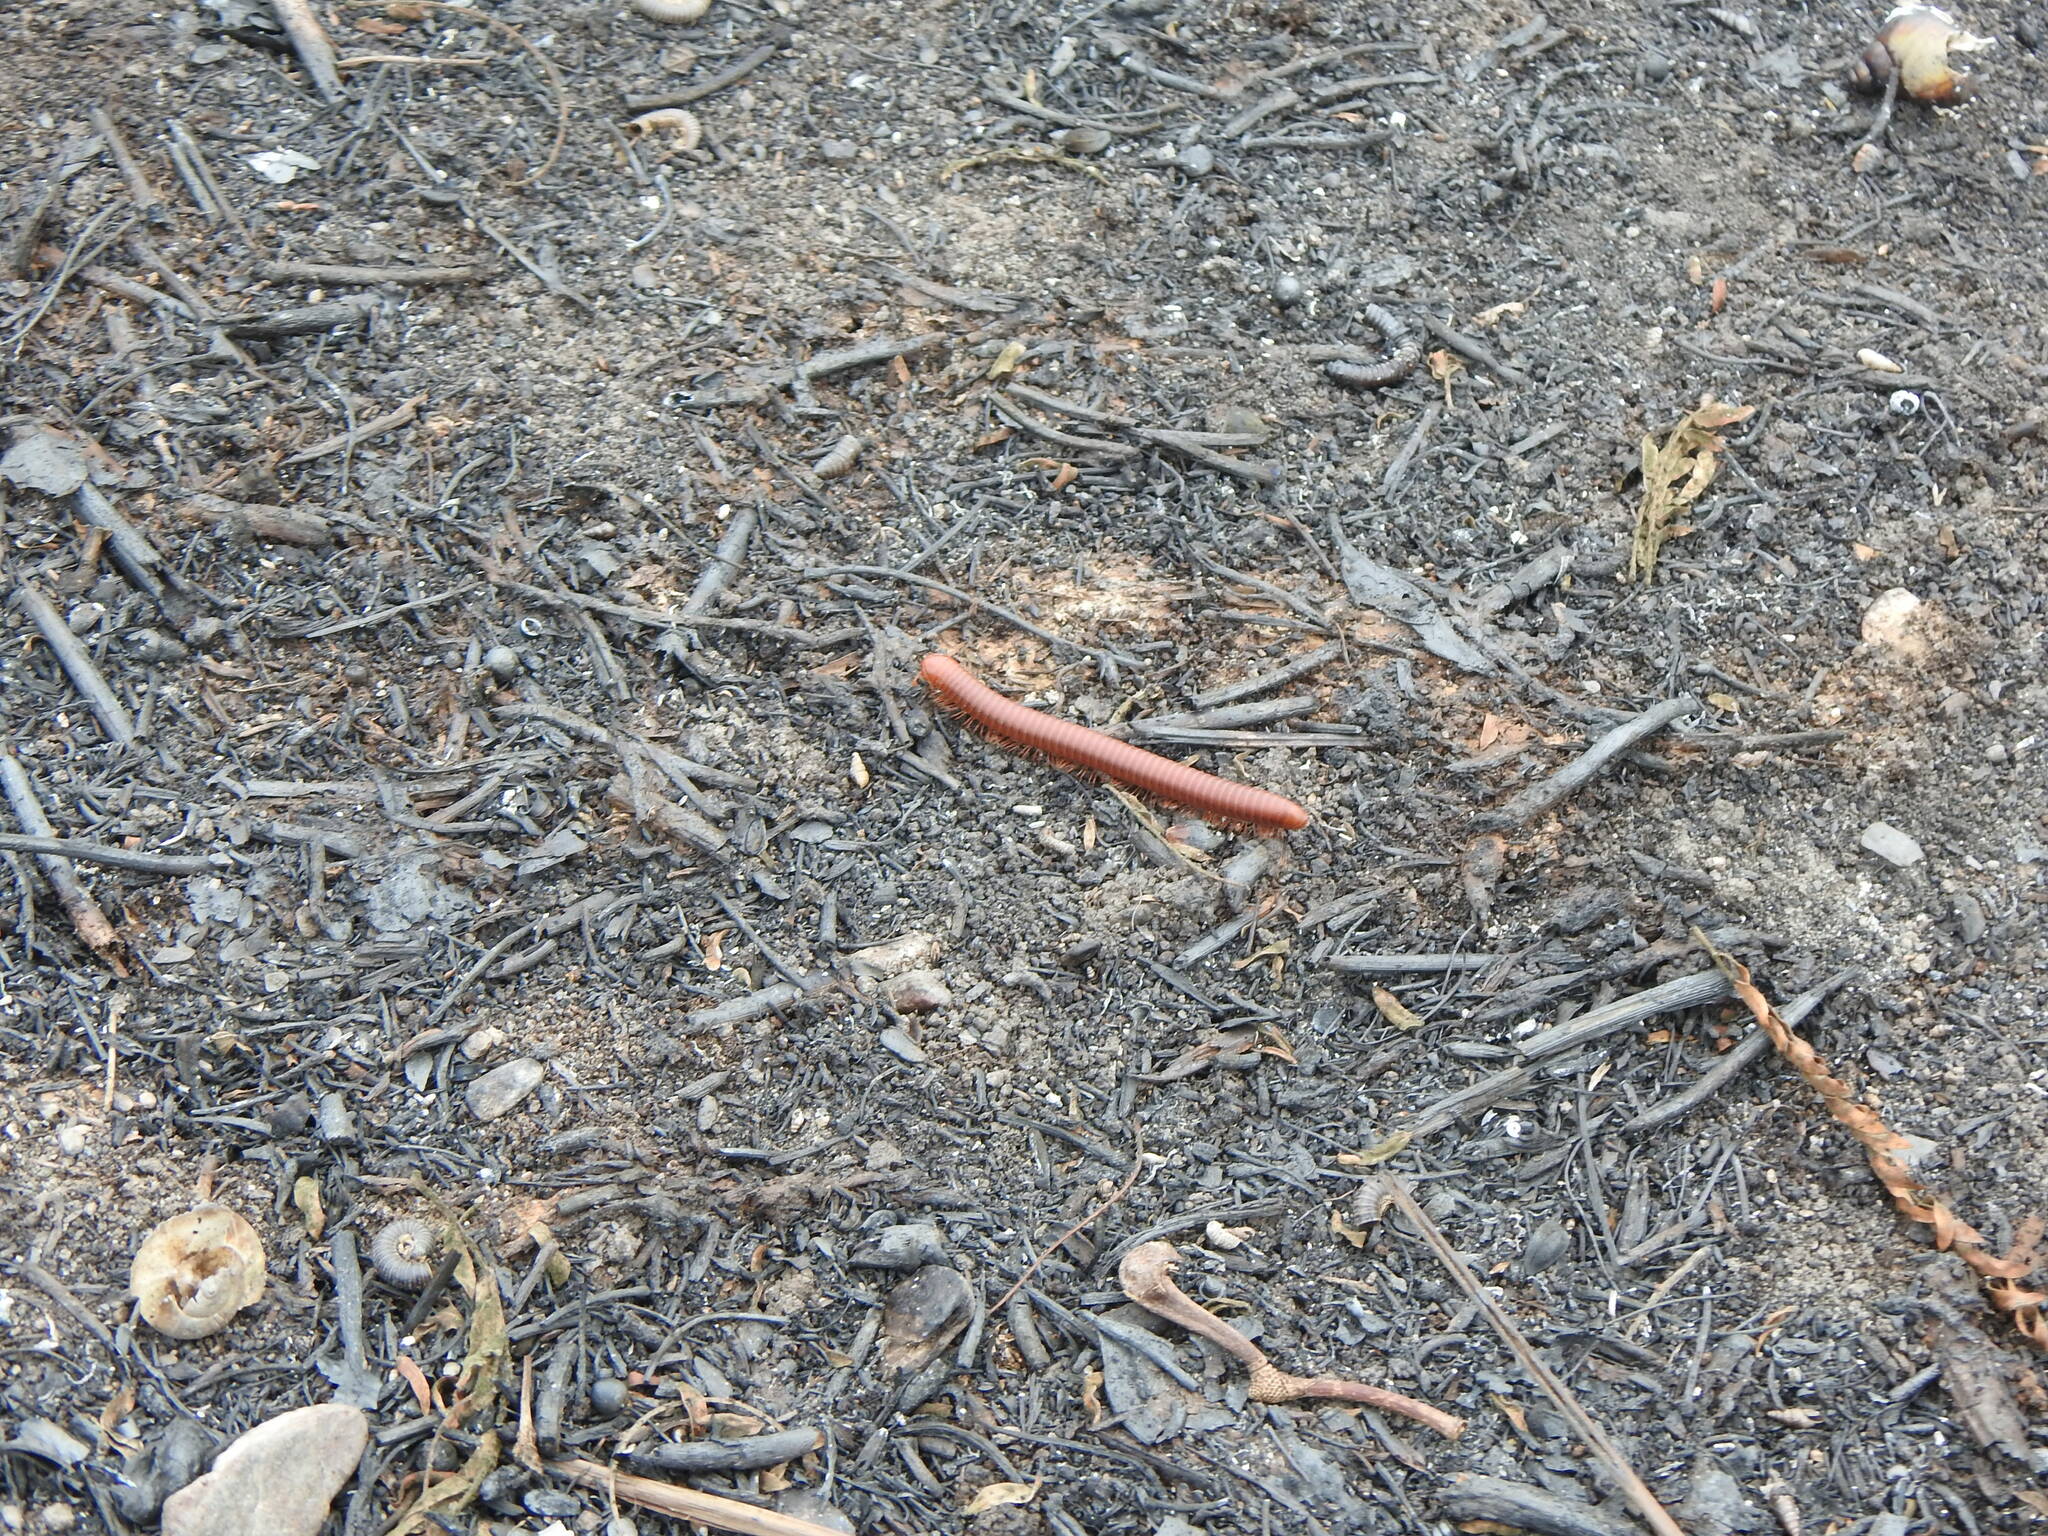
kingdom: Animalia
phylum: Arthropoda
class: Diplopoda
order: Spirobolida
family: Pachybolidae
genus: Trigoniulus
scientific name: Trigoniulus corallinus
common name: Millipede
